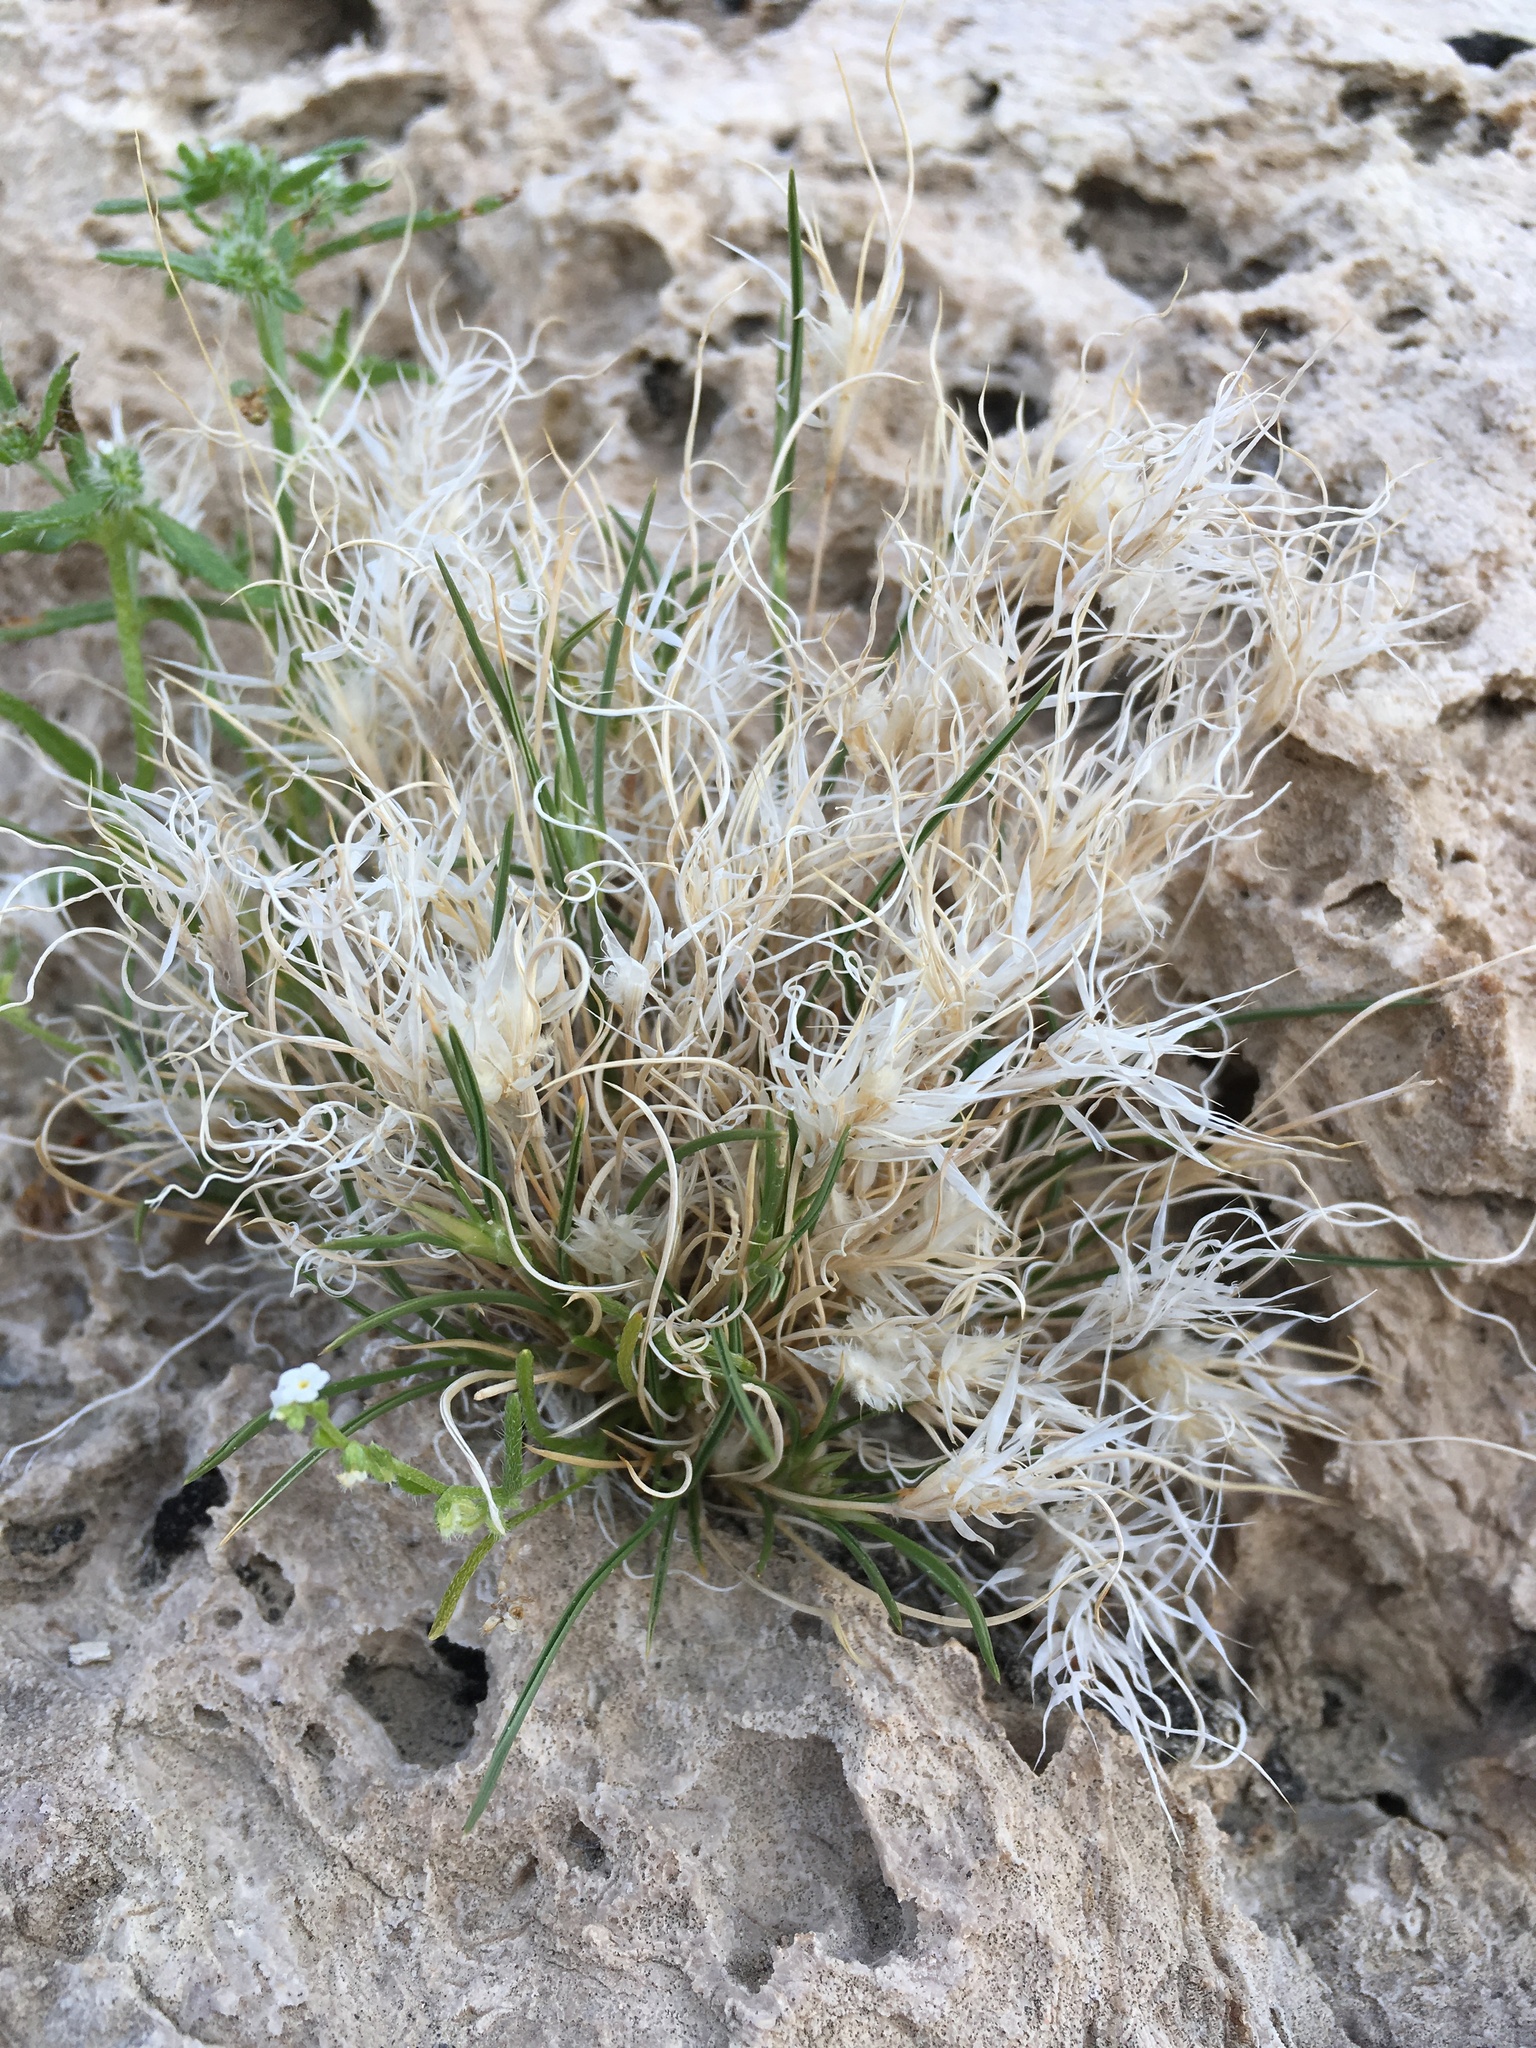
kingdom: Plantae
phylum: Tracheophyta
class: Liliopsida
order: Poales
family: Poaceae
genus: Dasyochloa
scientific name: Dasyochloa pulchella
